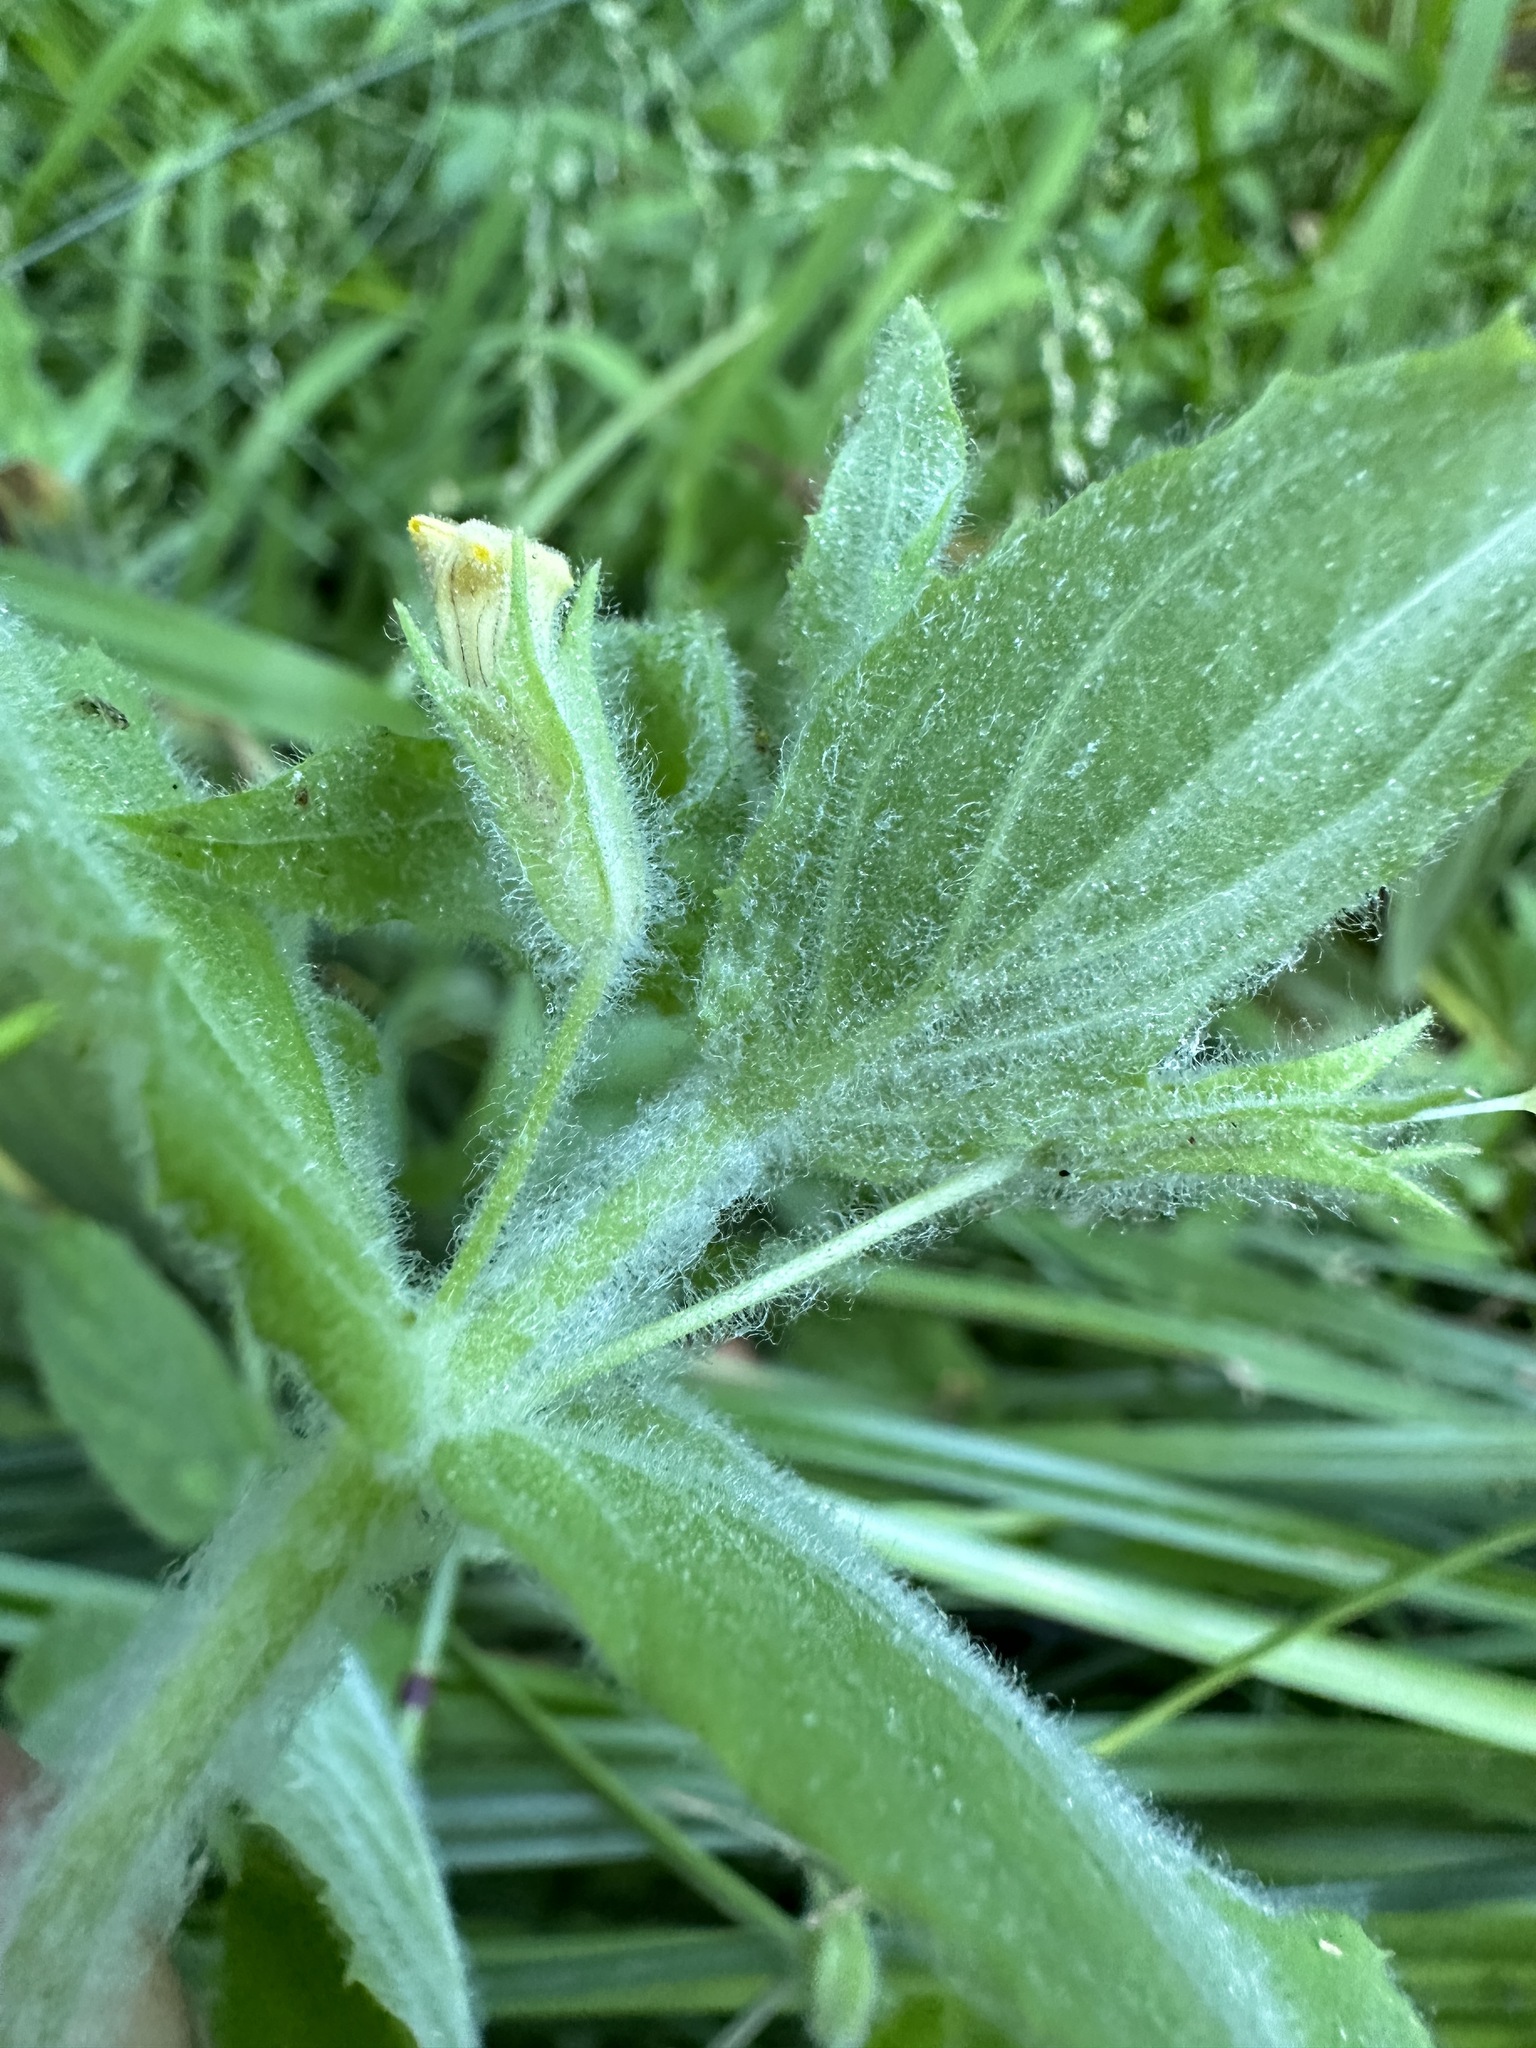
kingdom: Plantae
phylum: Tracheophyta
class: Magnoliopsida
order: Lamiales
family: Phrymaceae
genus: Erythranthe
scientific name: Erythranthe ptilota
